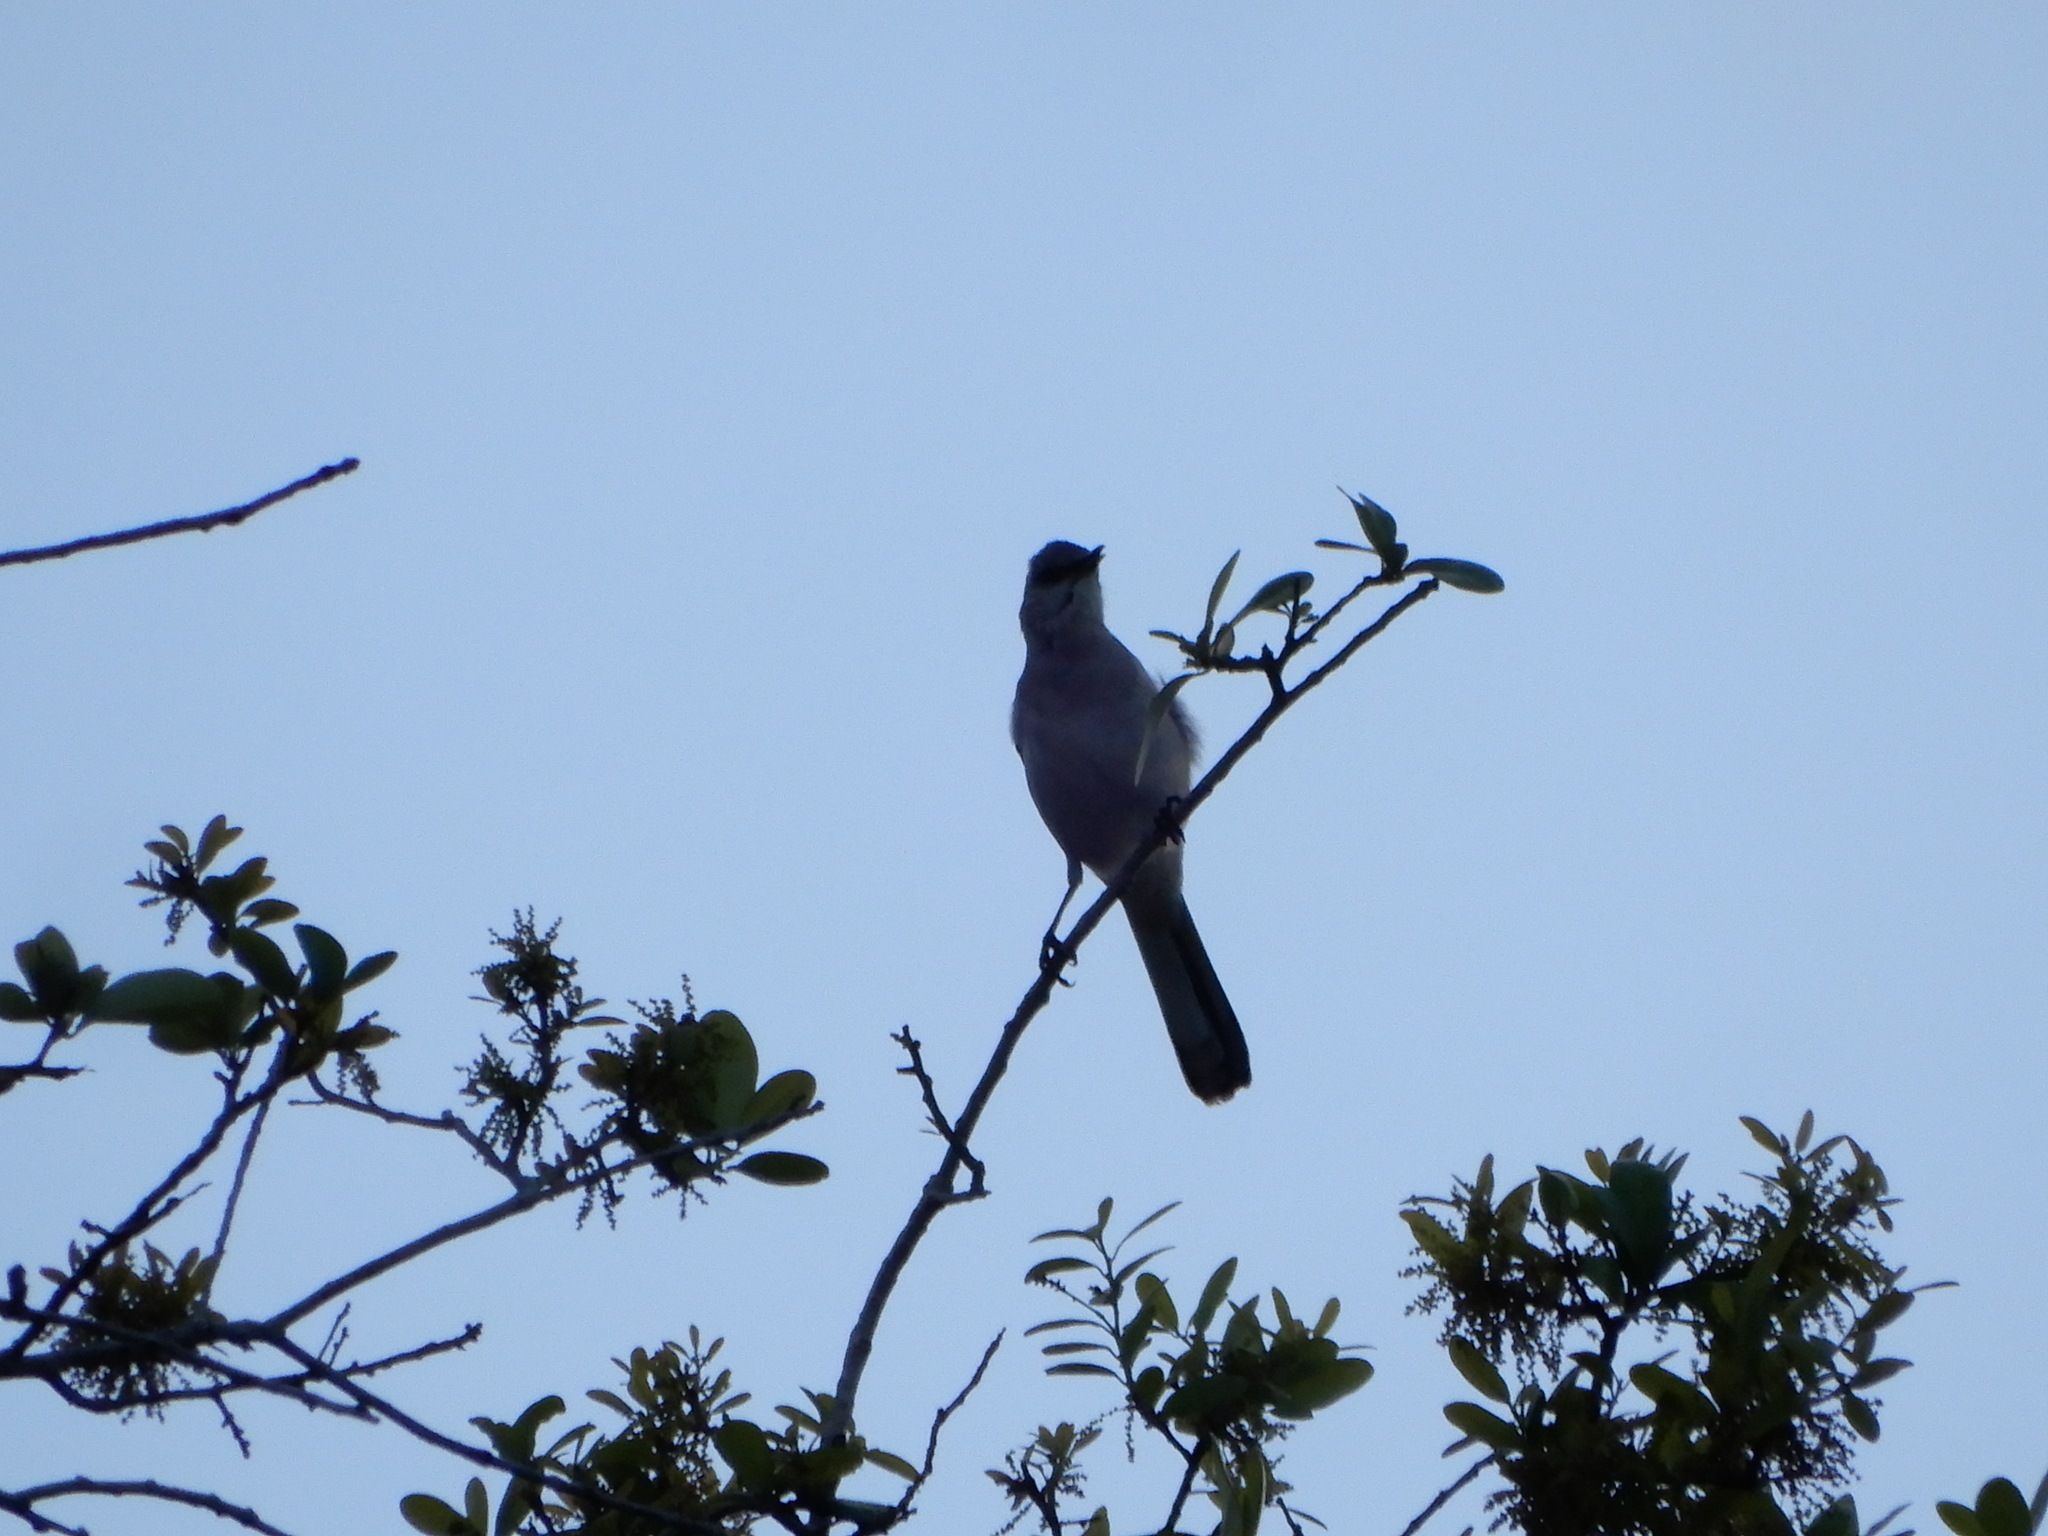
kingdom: Animalia
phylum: Chordata
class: Aves
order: Passeriformes
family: Mimidae
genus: Mimus
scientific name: Mimus polyglottos
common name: Northern mockingbird
